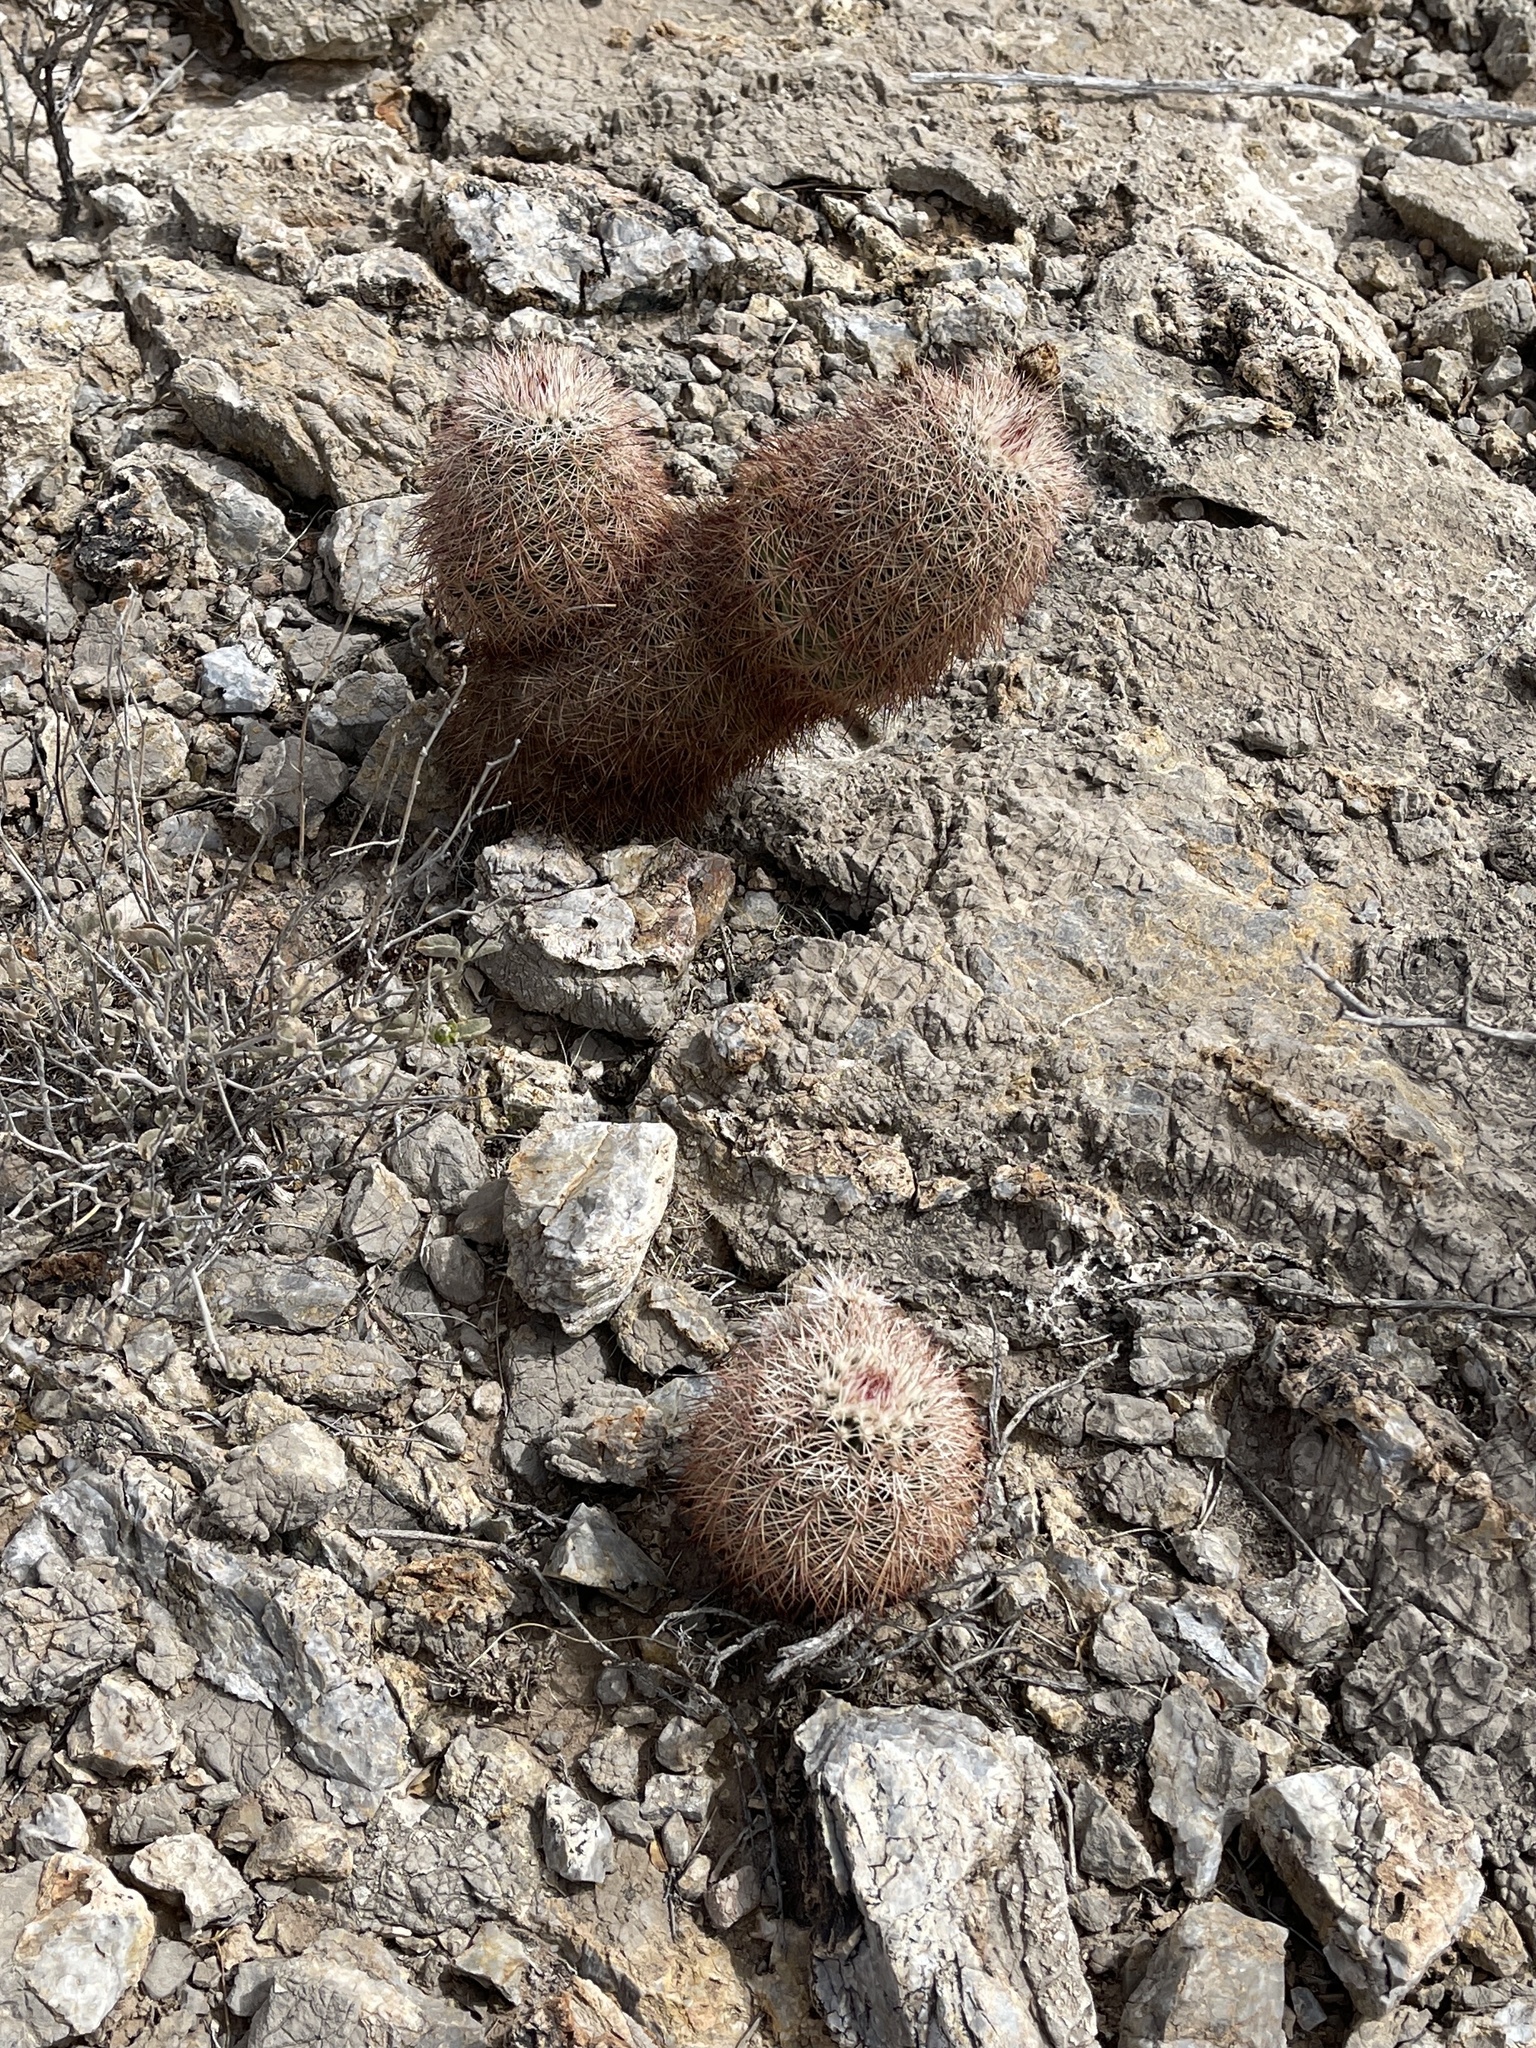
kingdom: Plantae
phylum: Tracheophyta
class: Magnoliopsida
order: Caryophyllales
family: Cactaceae
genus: Echinocereus
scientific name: Echinocereus dasyacanthus
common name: Spiny hedgehog cactus
